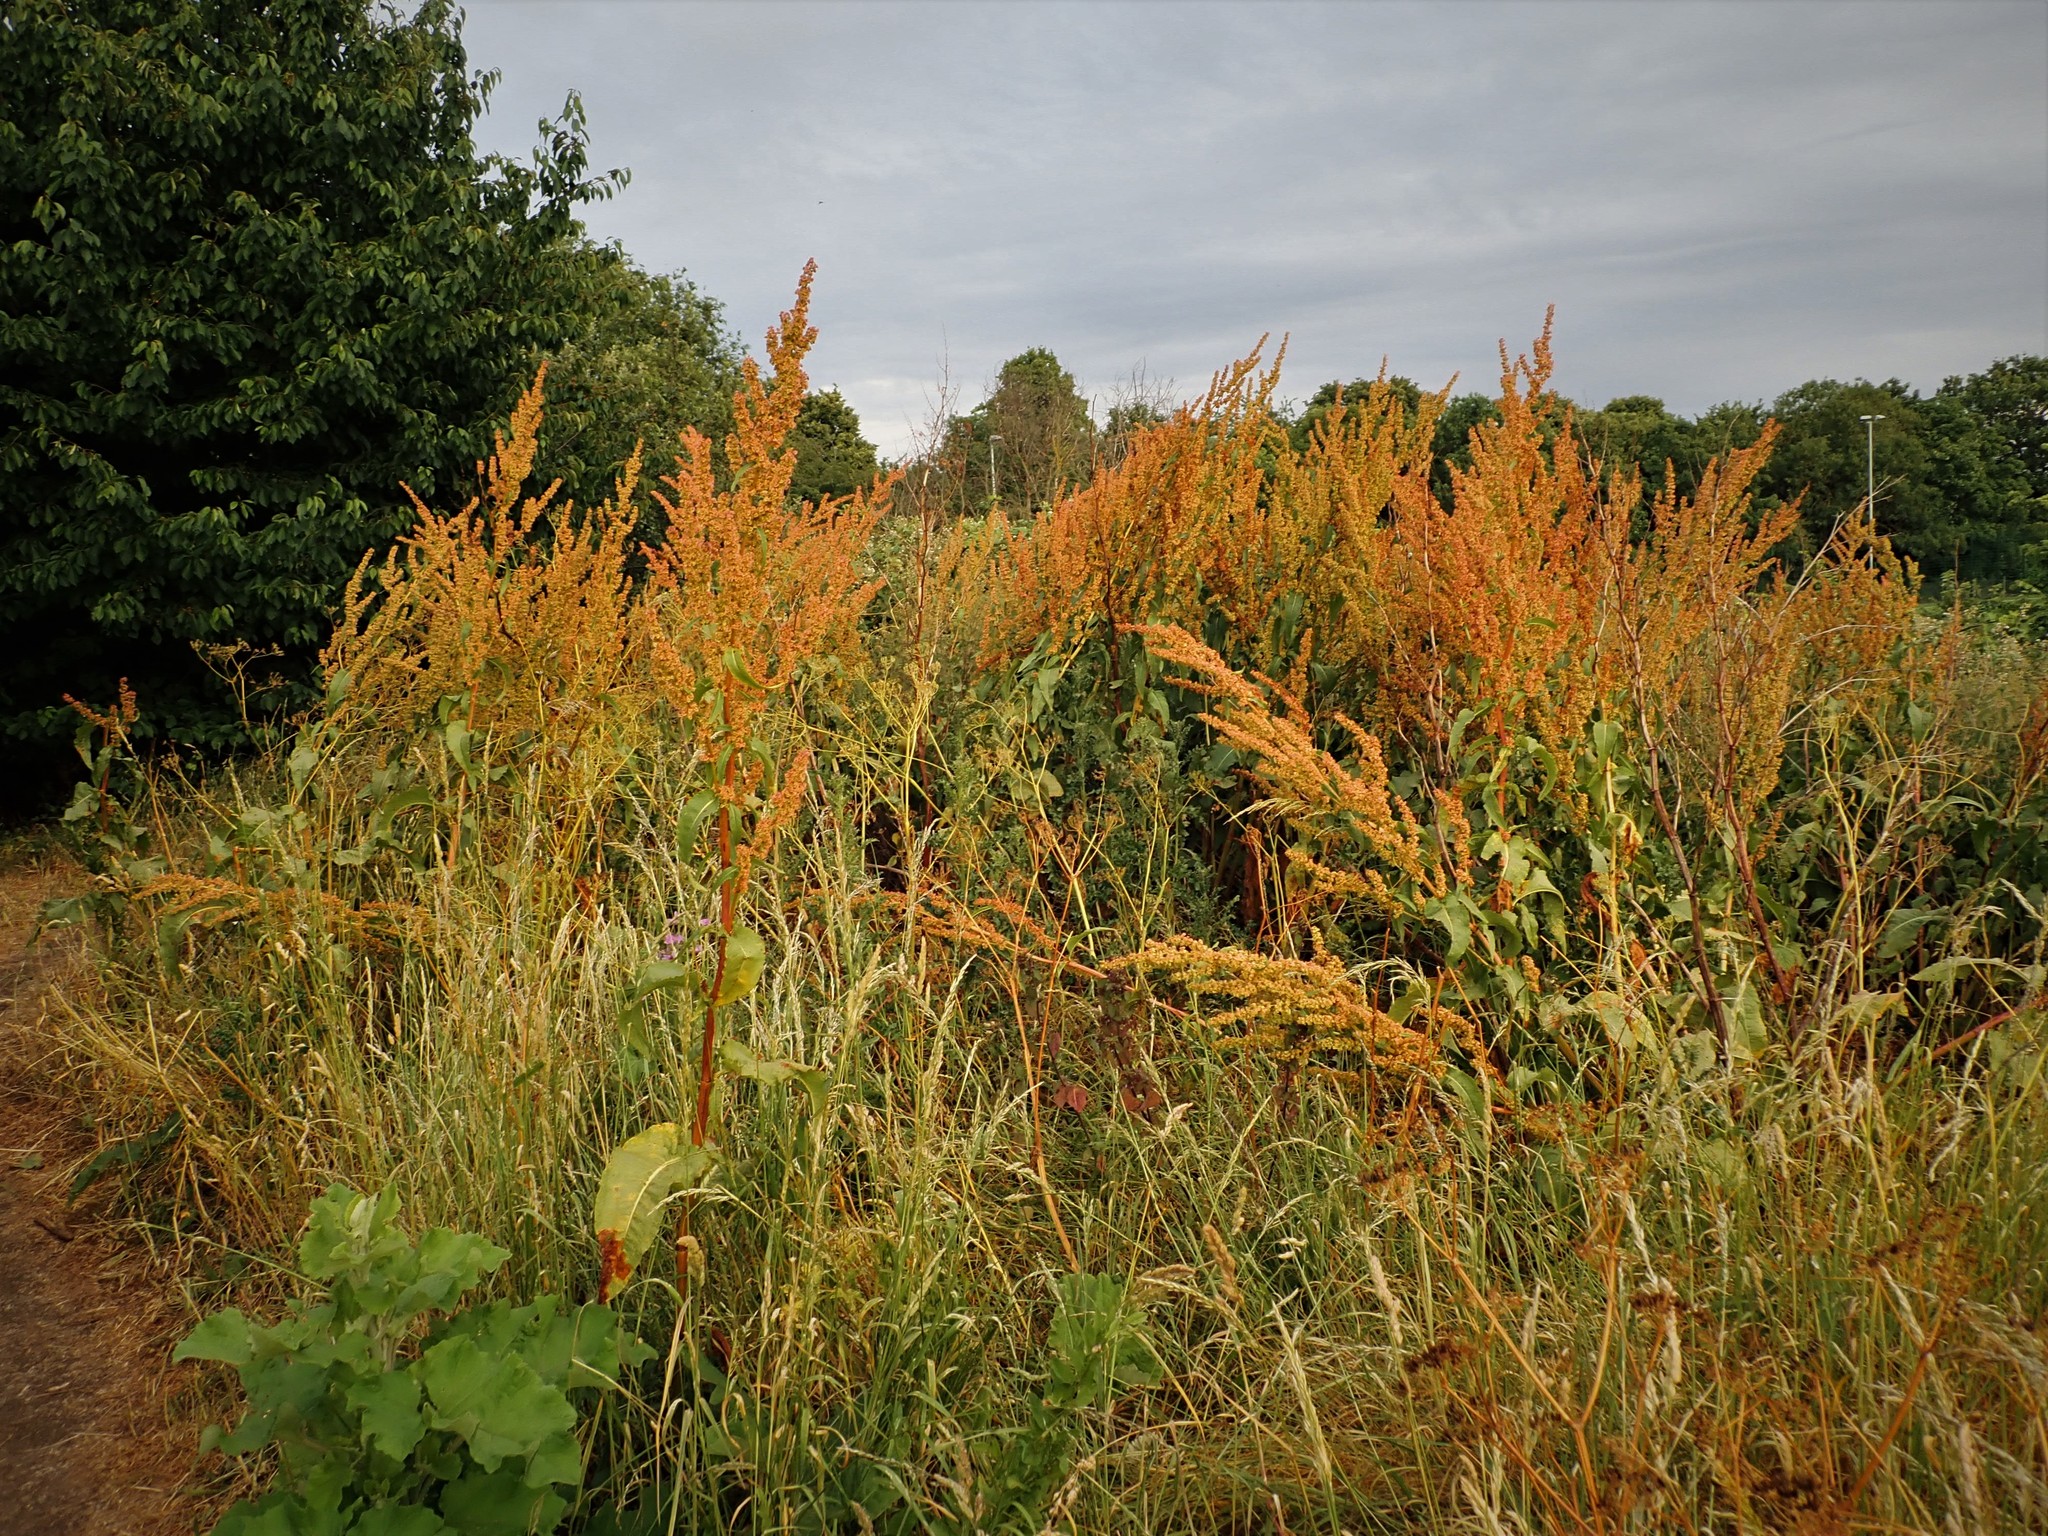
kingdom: Plantae
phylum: Tracheophyta
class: Magnoliopsida
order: Caryophyllales
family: Polygonaceae
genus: Rumex
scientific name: Rumex cristatus
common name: Greek dock
